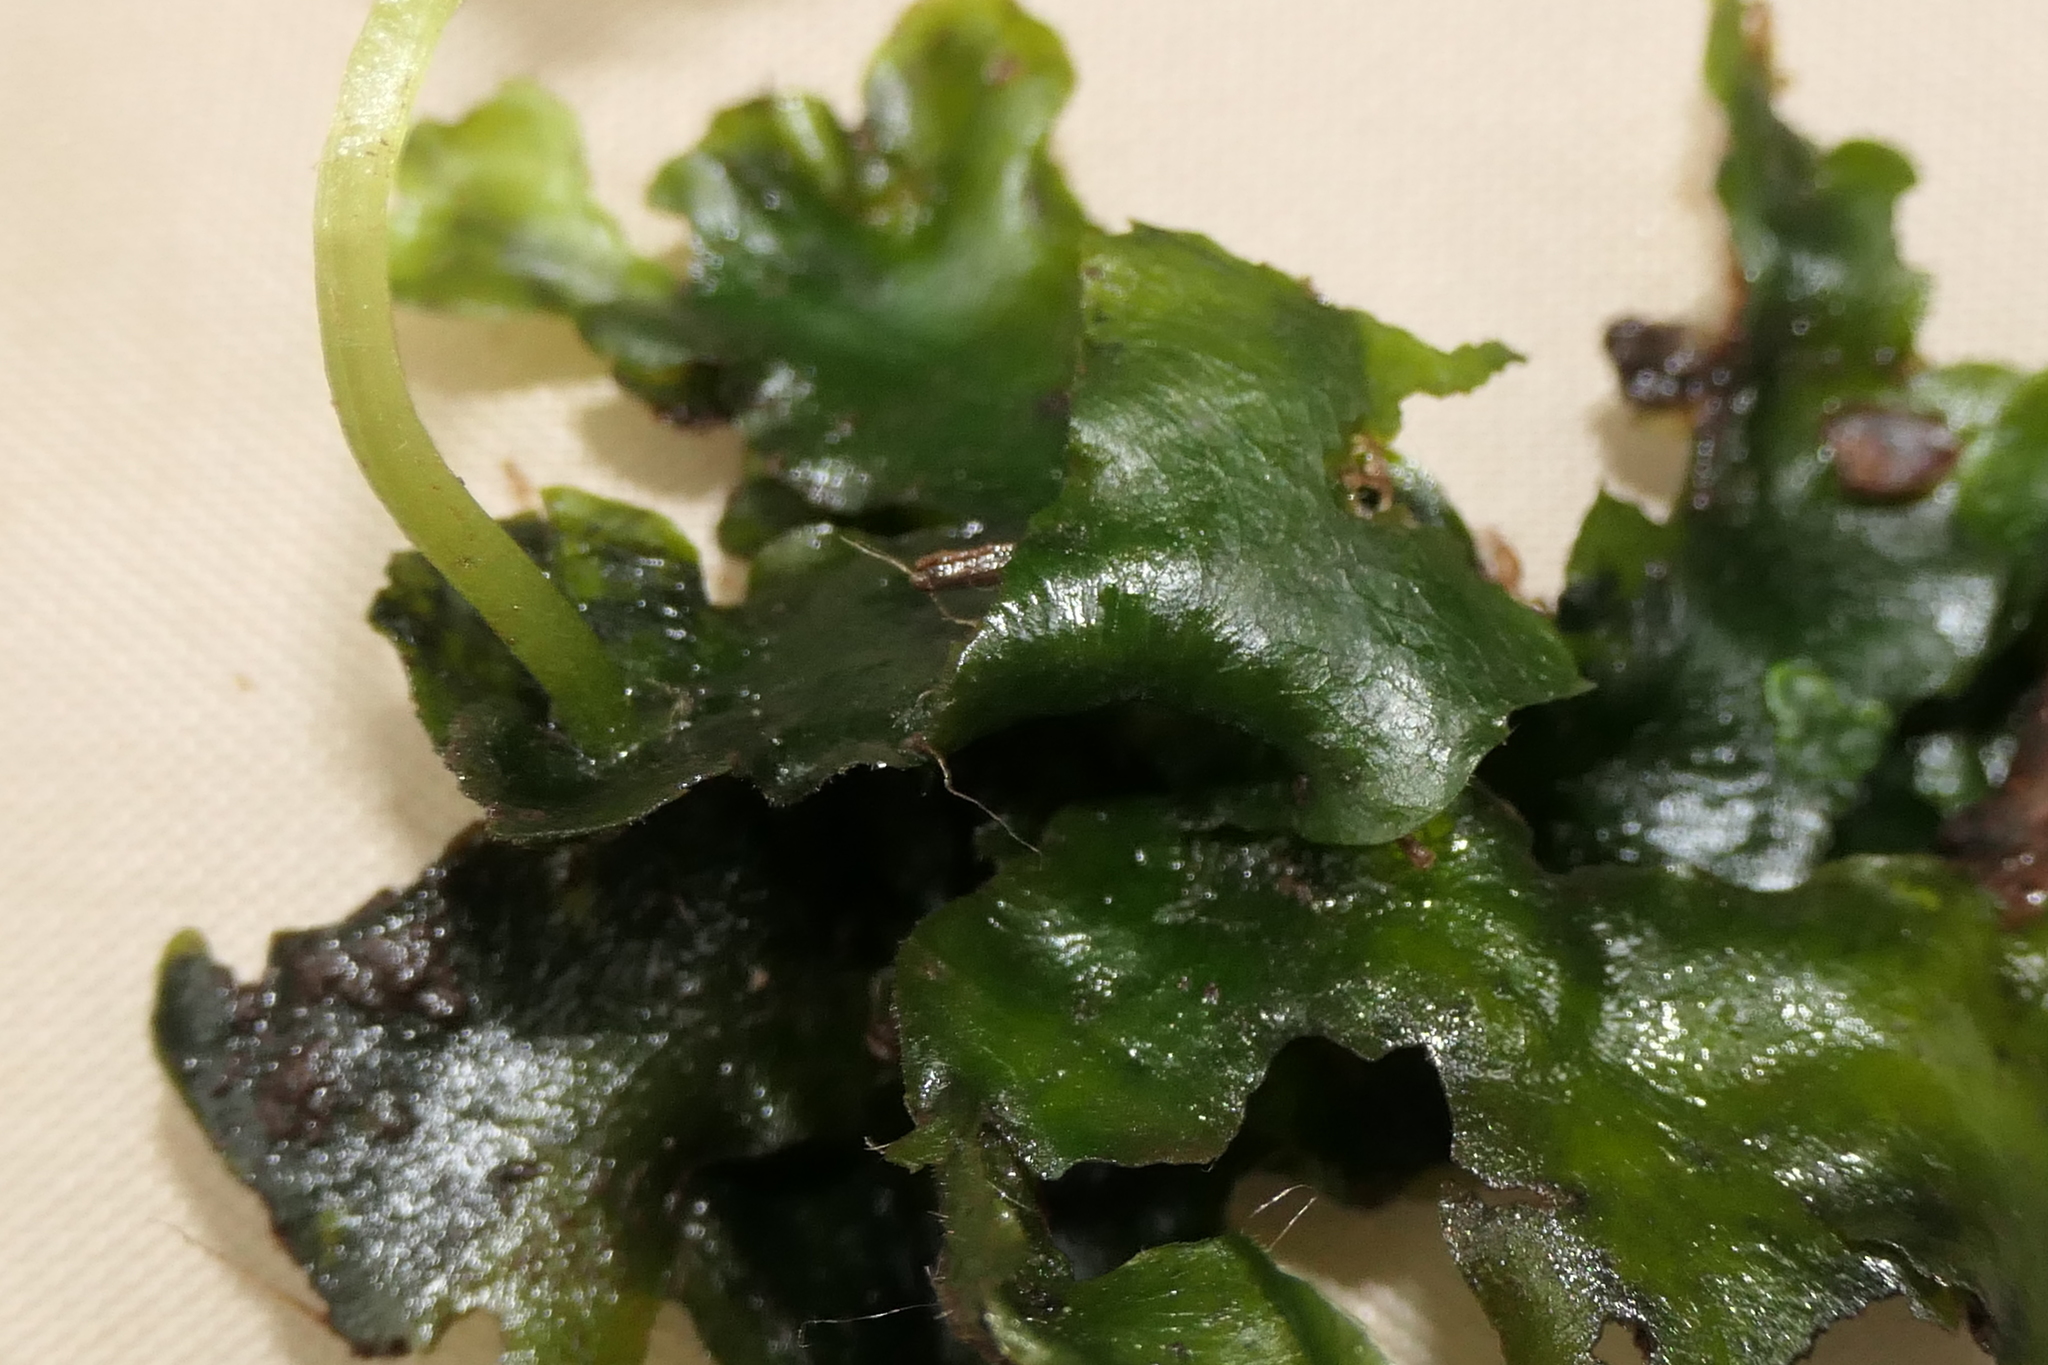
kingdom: Plantae
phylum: Marchantiophyta
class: Marchantiopsida
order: Marchantiales
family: Dumortieraceae
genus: Dumortiera
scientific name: Dumortiera hirsuta
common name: Dumortier's liverwort
